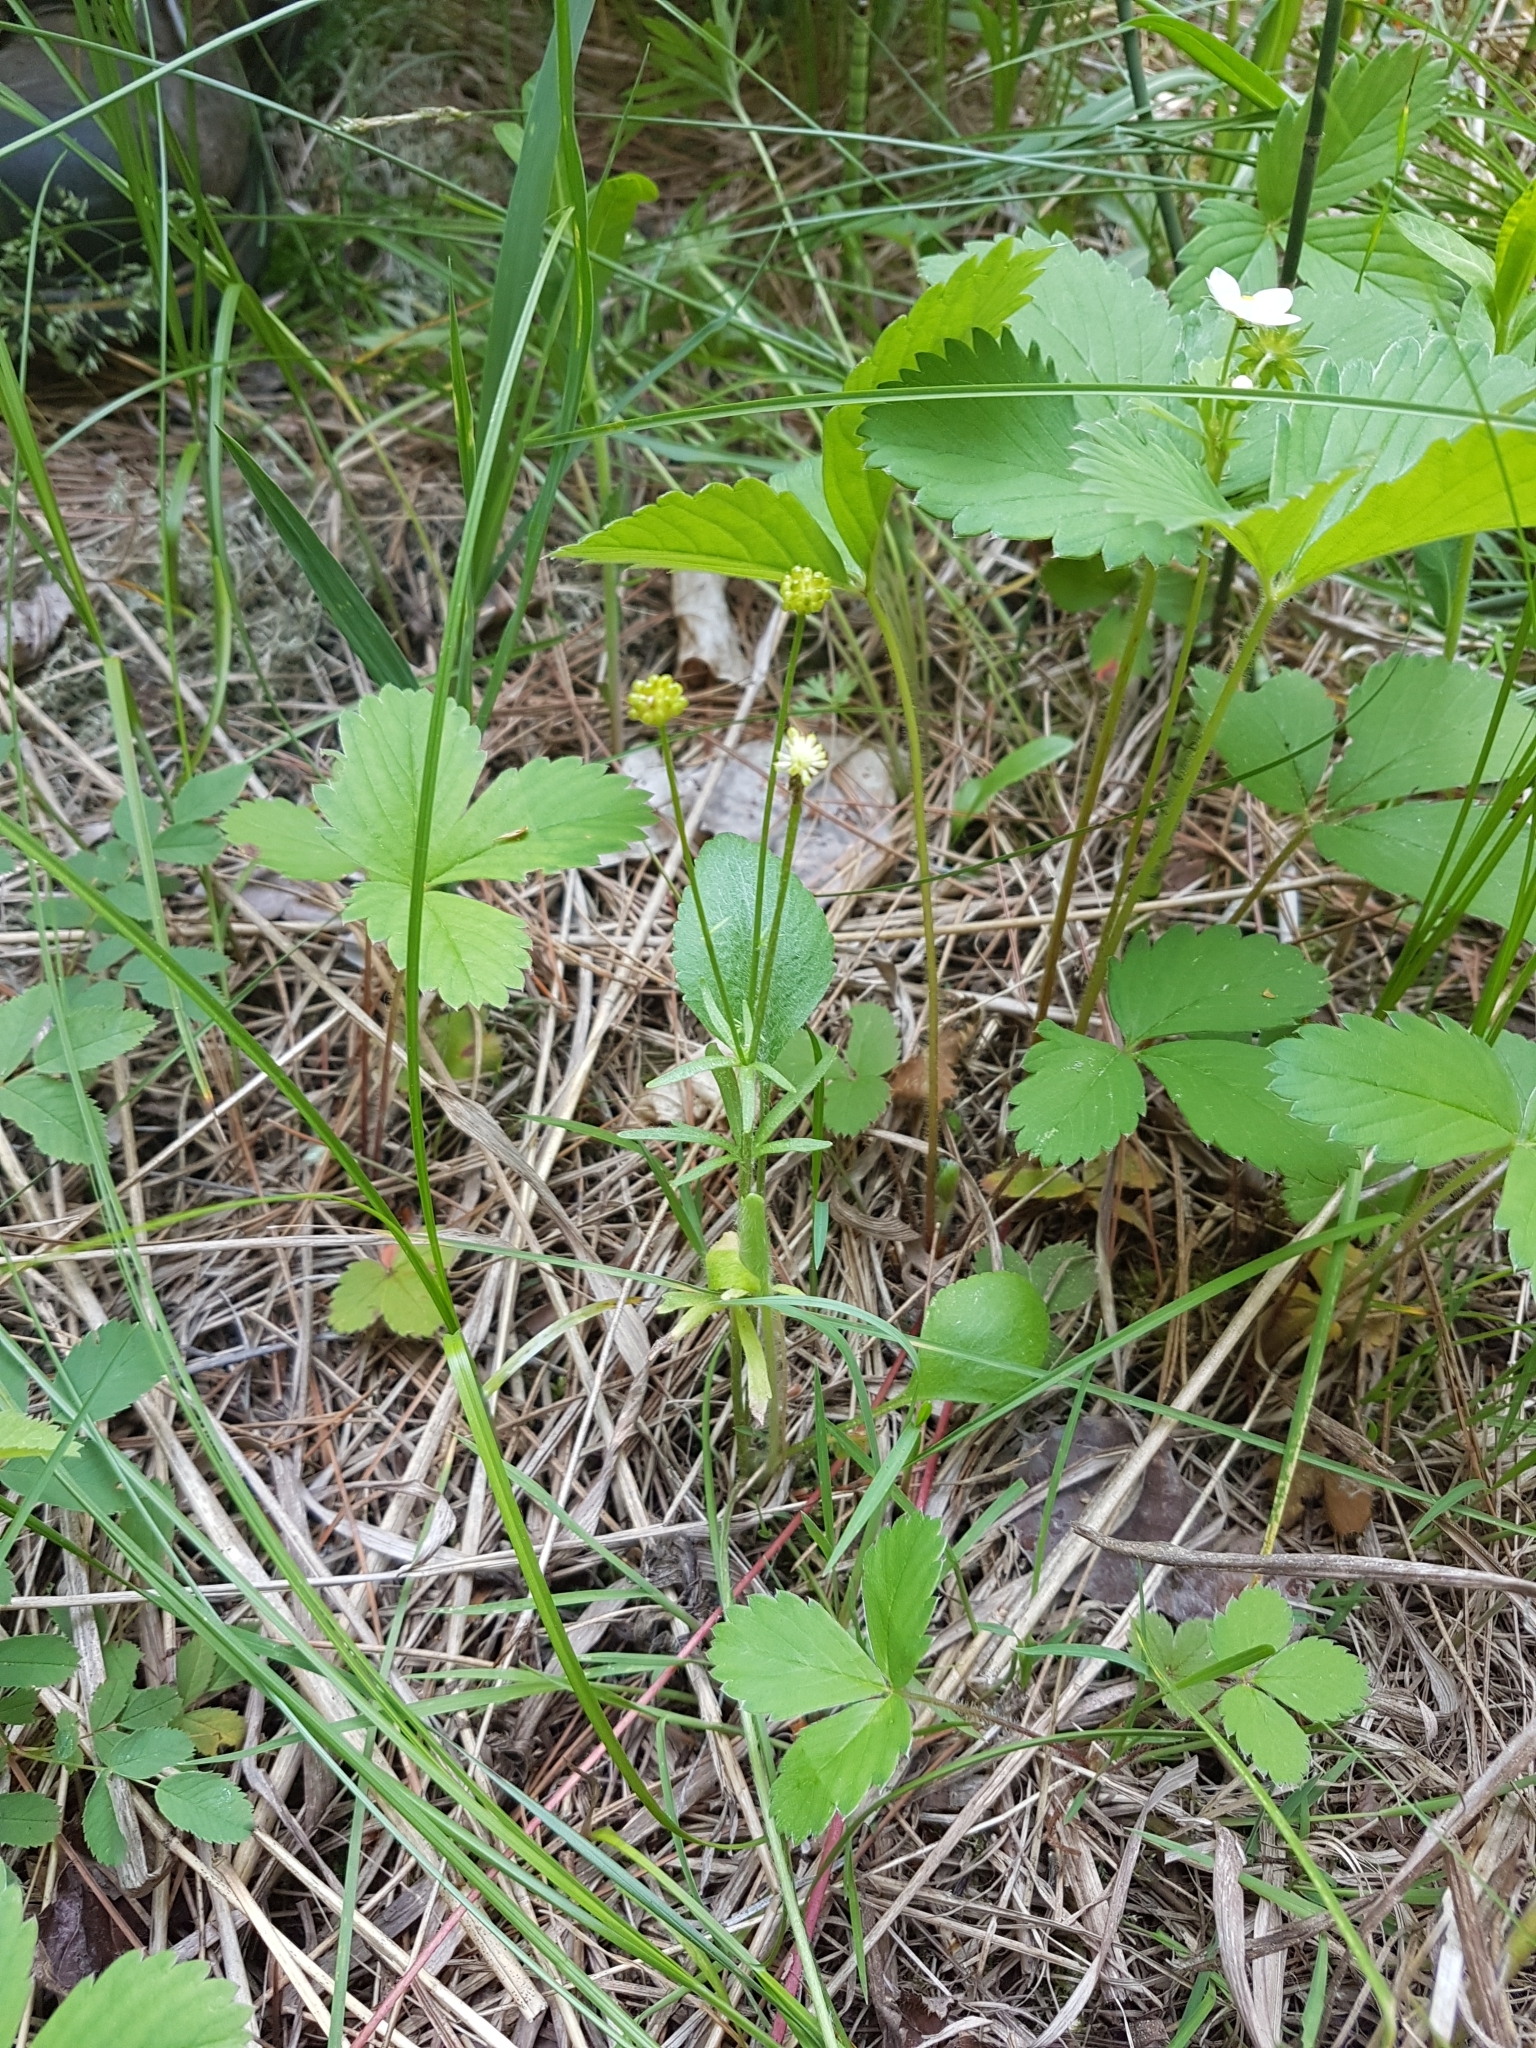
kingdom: Plantae
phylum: Tracheophyta
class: Magnoliopsida
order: Ranunculales
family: Ranunculaceae
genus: Ranunculus
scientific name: Ranunculus rhomboideus
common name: Prairie buttercup
